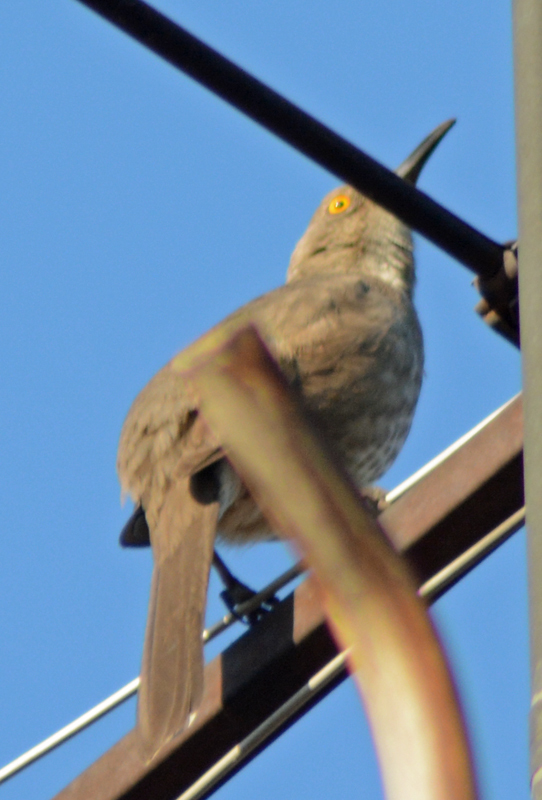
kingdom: Animalia
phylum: Chordata
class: Aves
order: Passeriformes
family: Mimidae
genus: Toxostoma
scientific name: Toxostoma curvirostre
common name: Curve-billed thrasher
